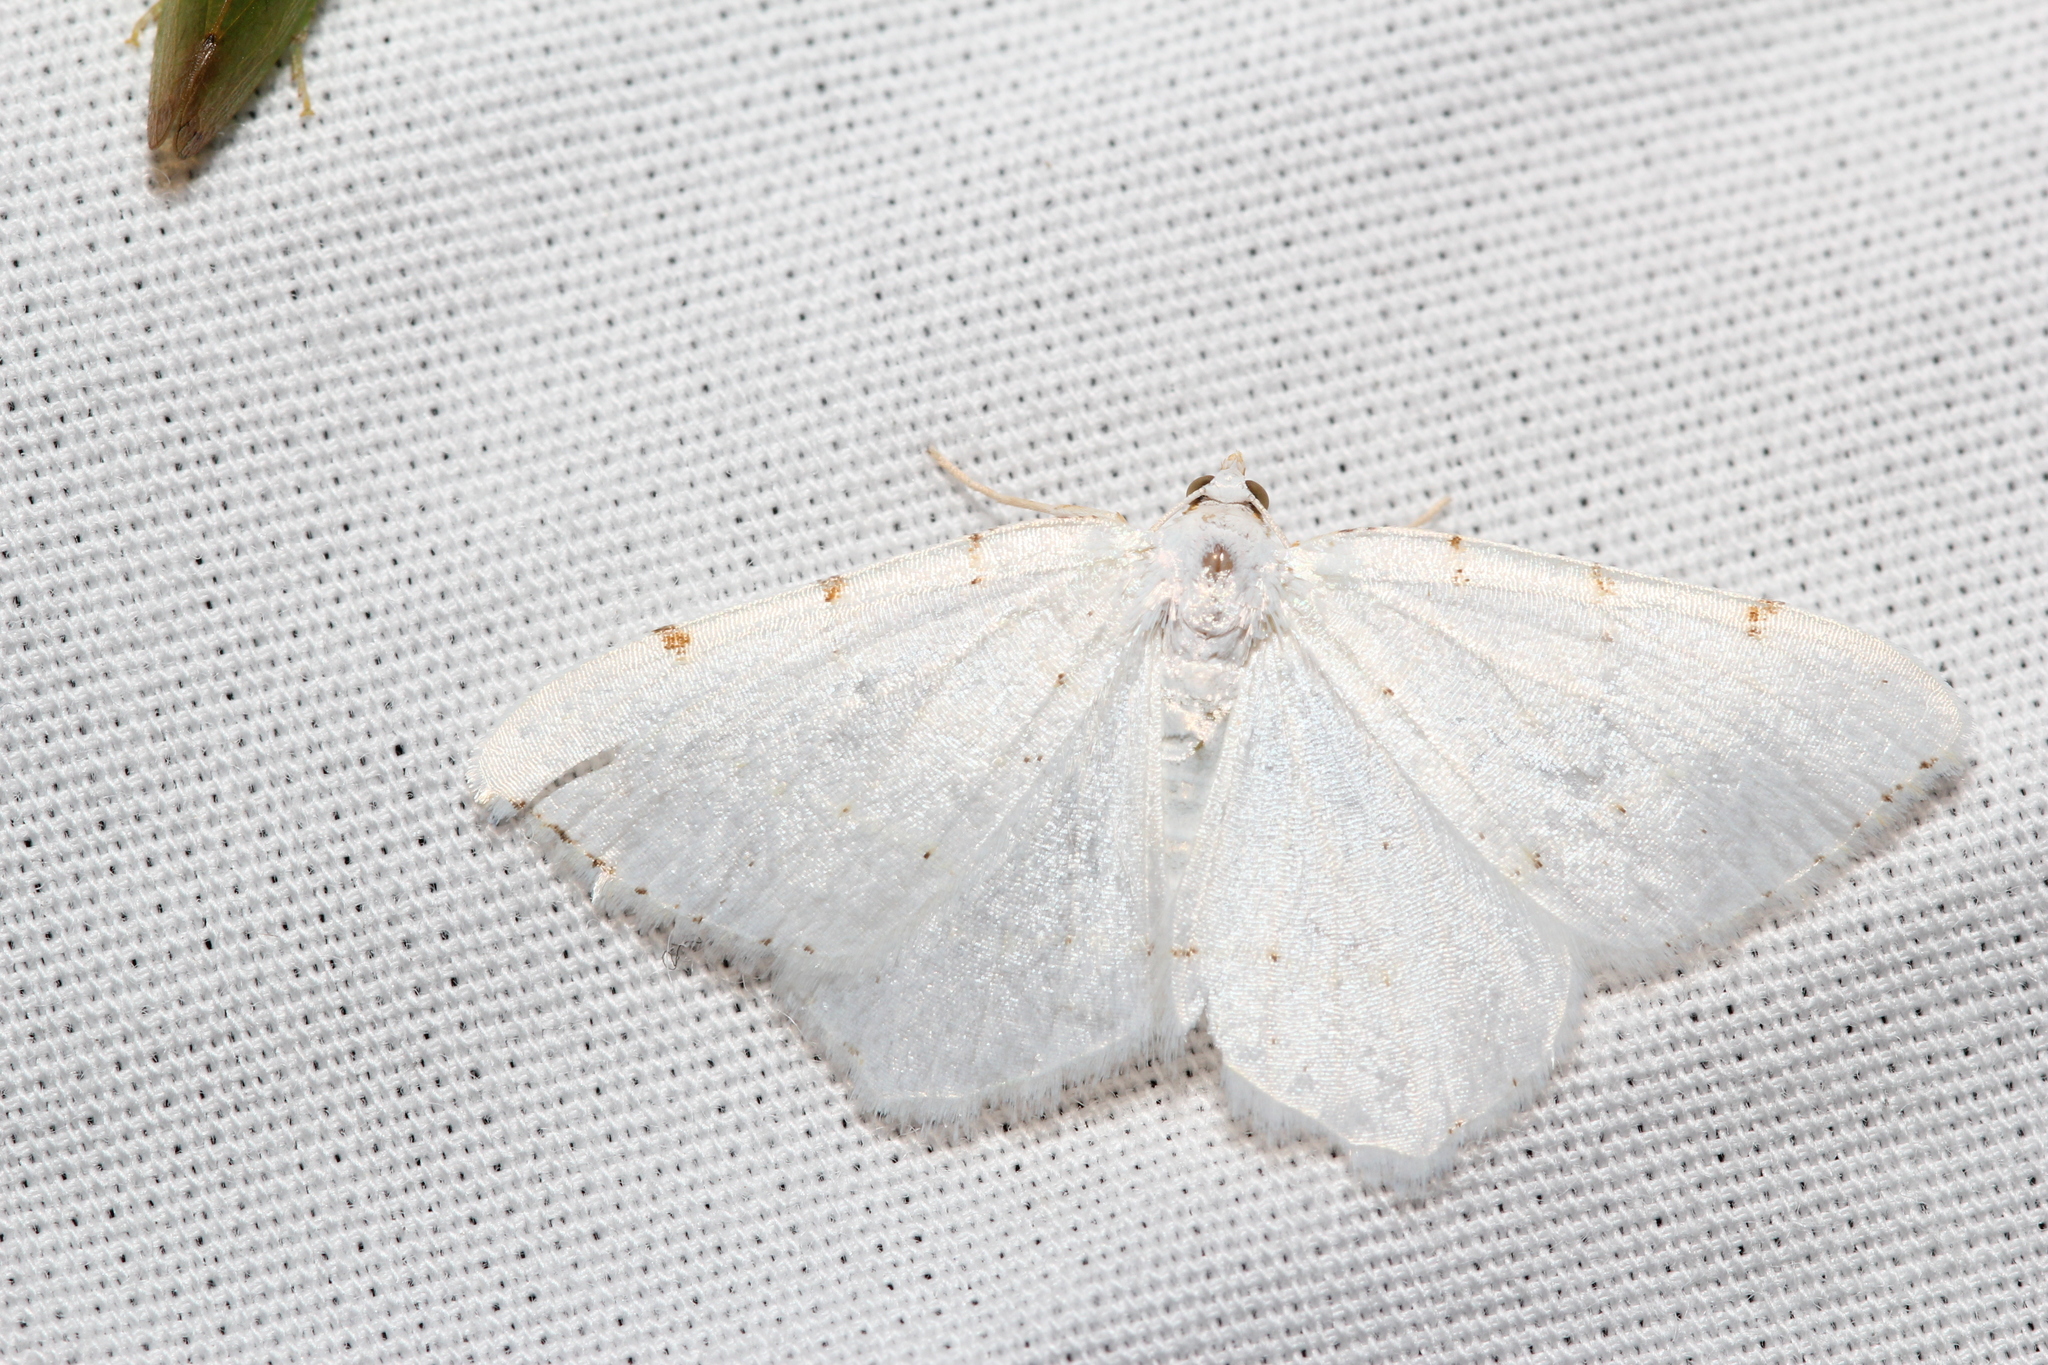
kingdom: Animalia
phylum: Arthropoda
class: Insecta
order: Lepidoptera
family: Geometridae
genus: Macaria
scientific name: Macaria pustularia
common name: Lesser maple spanworm moth
